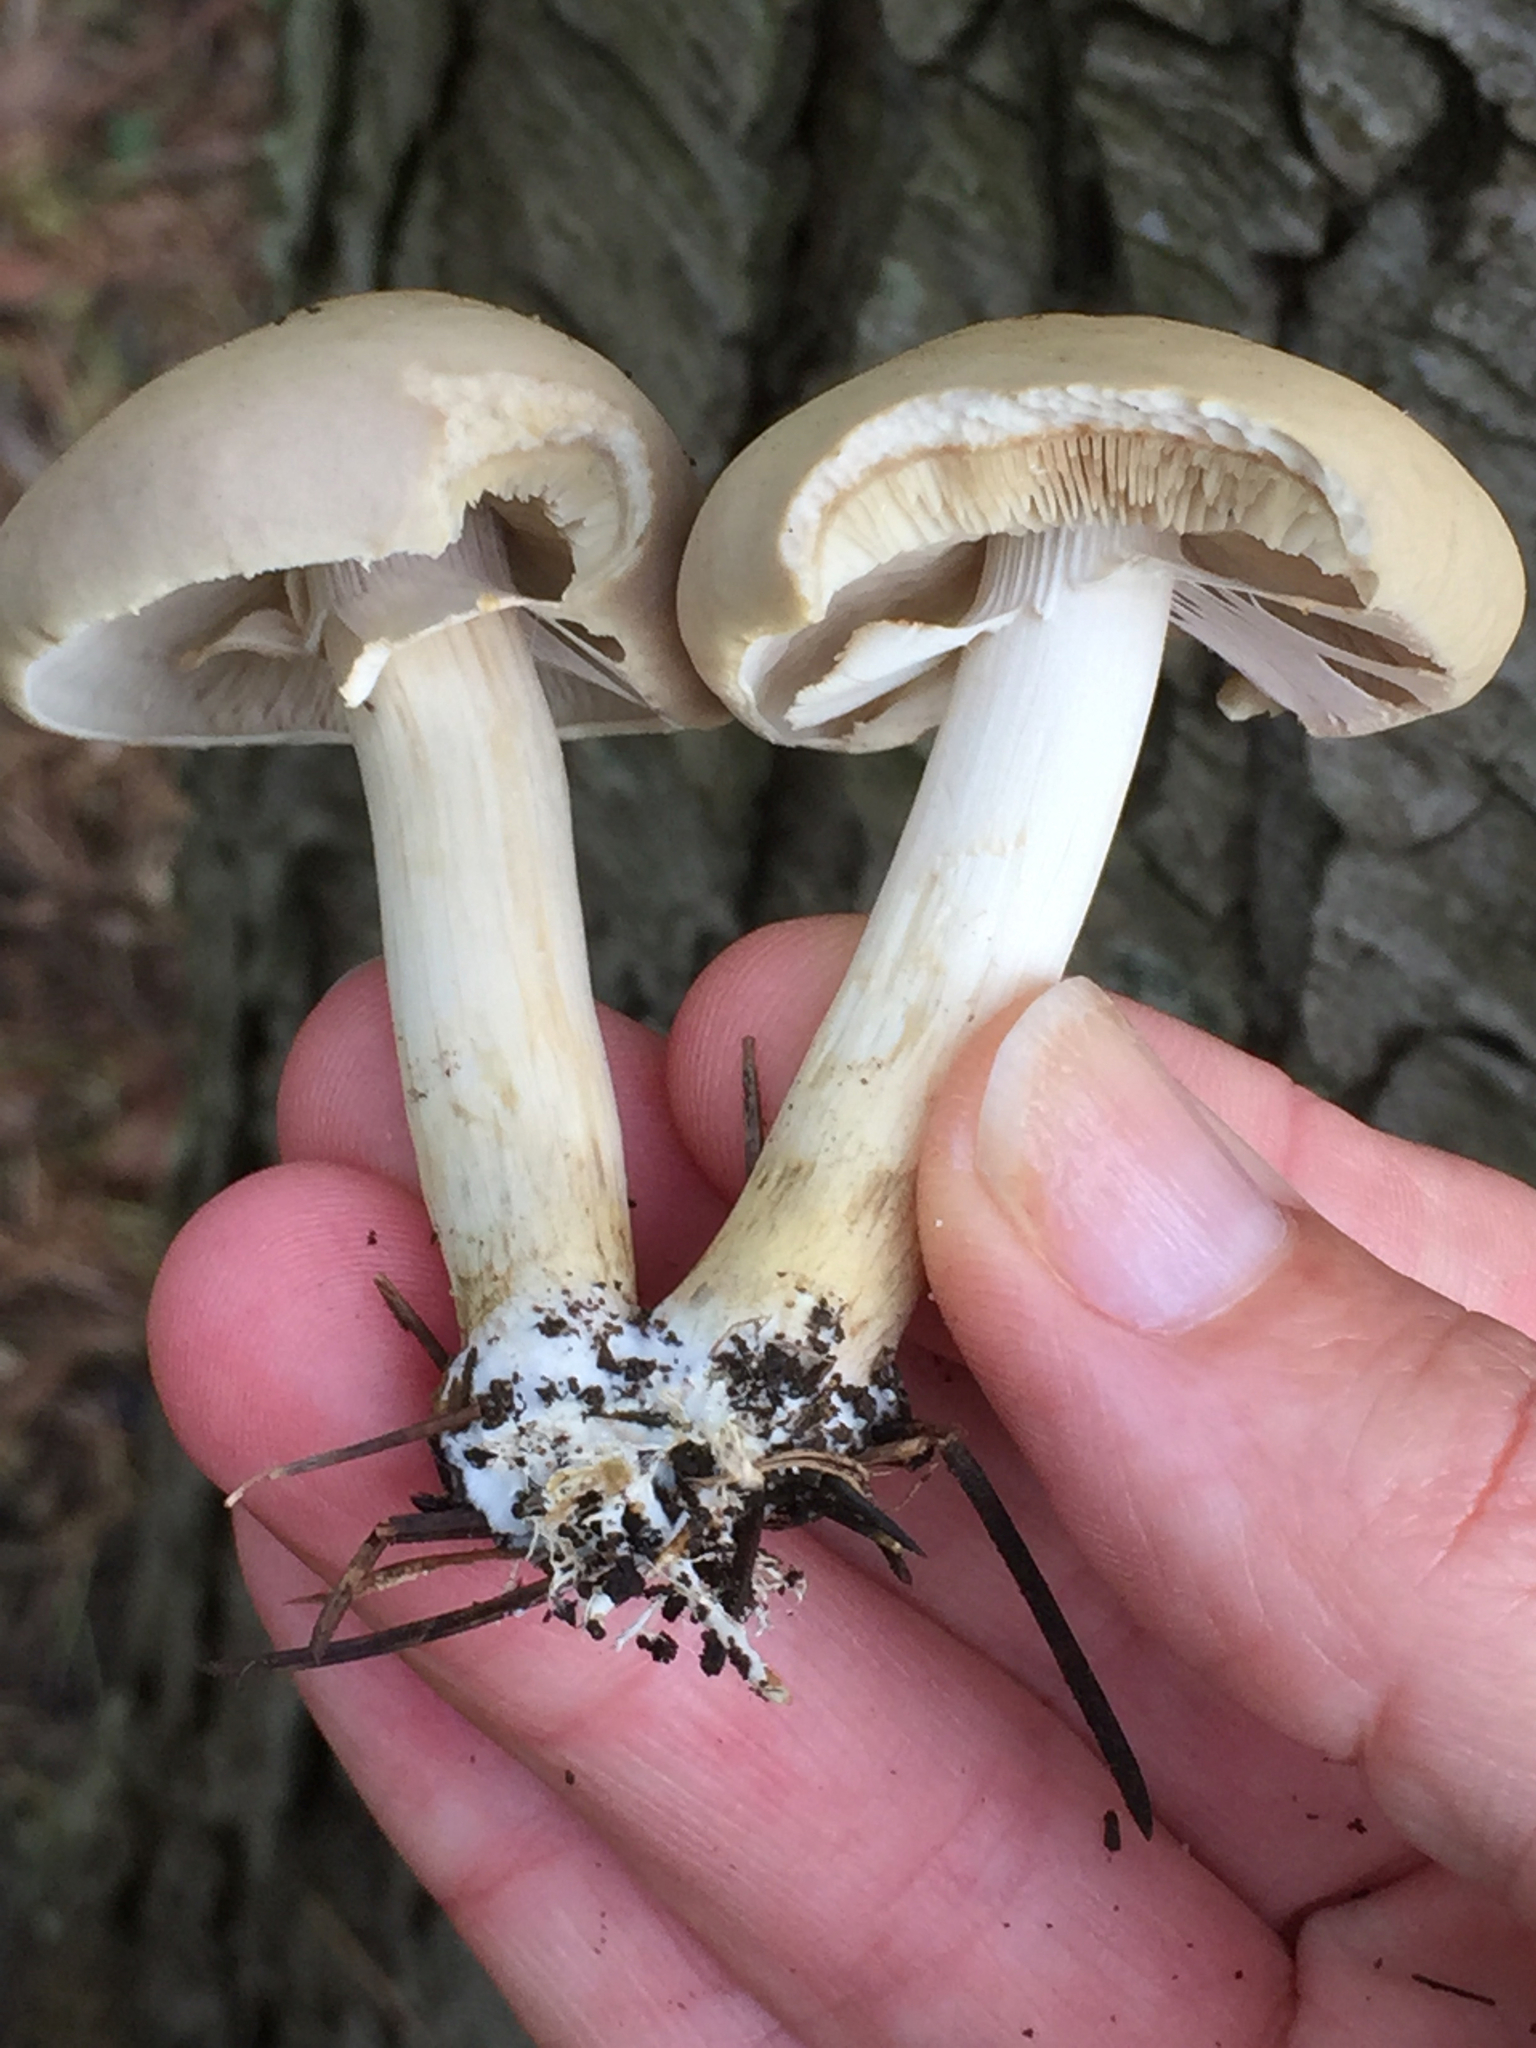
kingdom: Fungi
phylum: Basidiomycota
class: Agaricomycetes
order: Agaricales
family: Strophariaceae
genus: Agrocybe
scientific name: Agrocybe praecox
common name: Spring fieldcap
